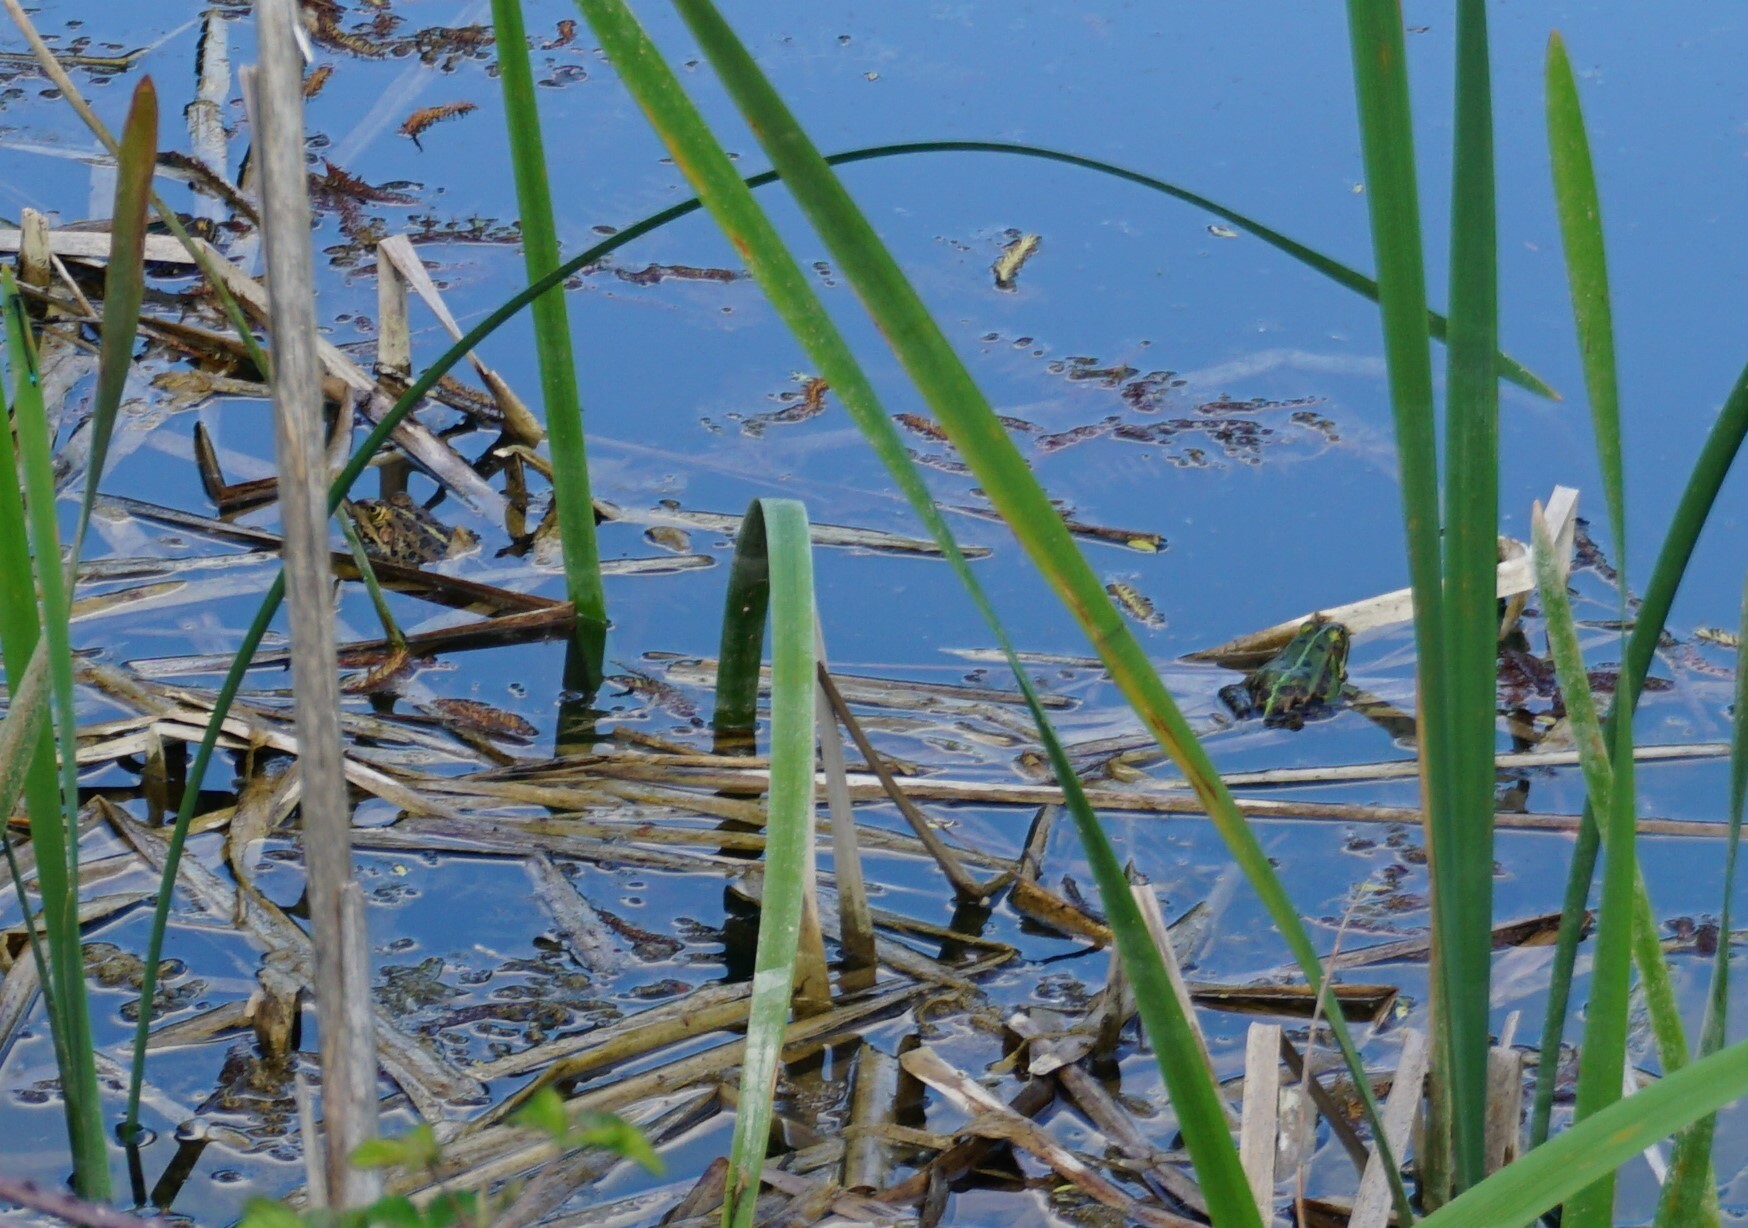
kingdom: Animalia
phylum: Chordata
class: Amphibia
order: Anura
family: Ranidae
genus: Pelophylax
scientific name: Pelophylax
